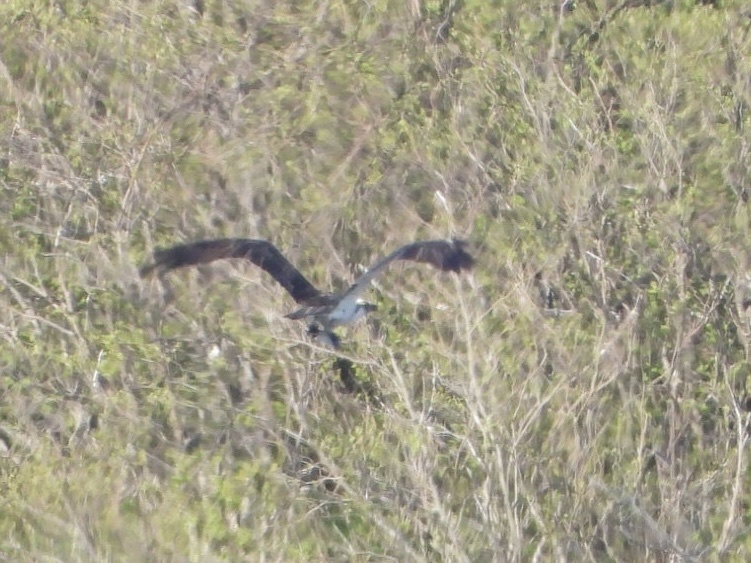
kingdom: Animalia
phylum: Chordata
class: Aves
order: Accipitriformes
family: Pandionidae
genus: Pandion
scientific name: Pandion haliaetus
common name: Osprey
